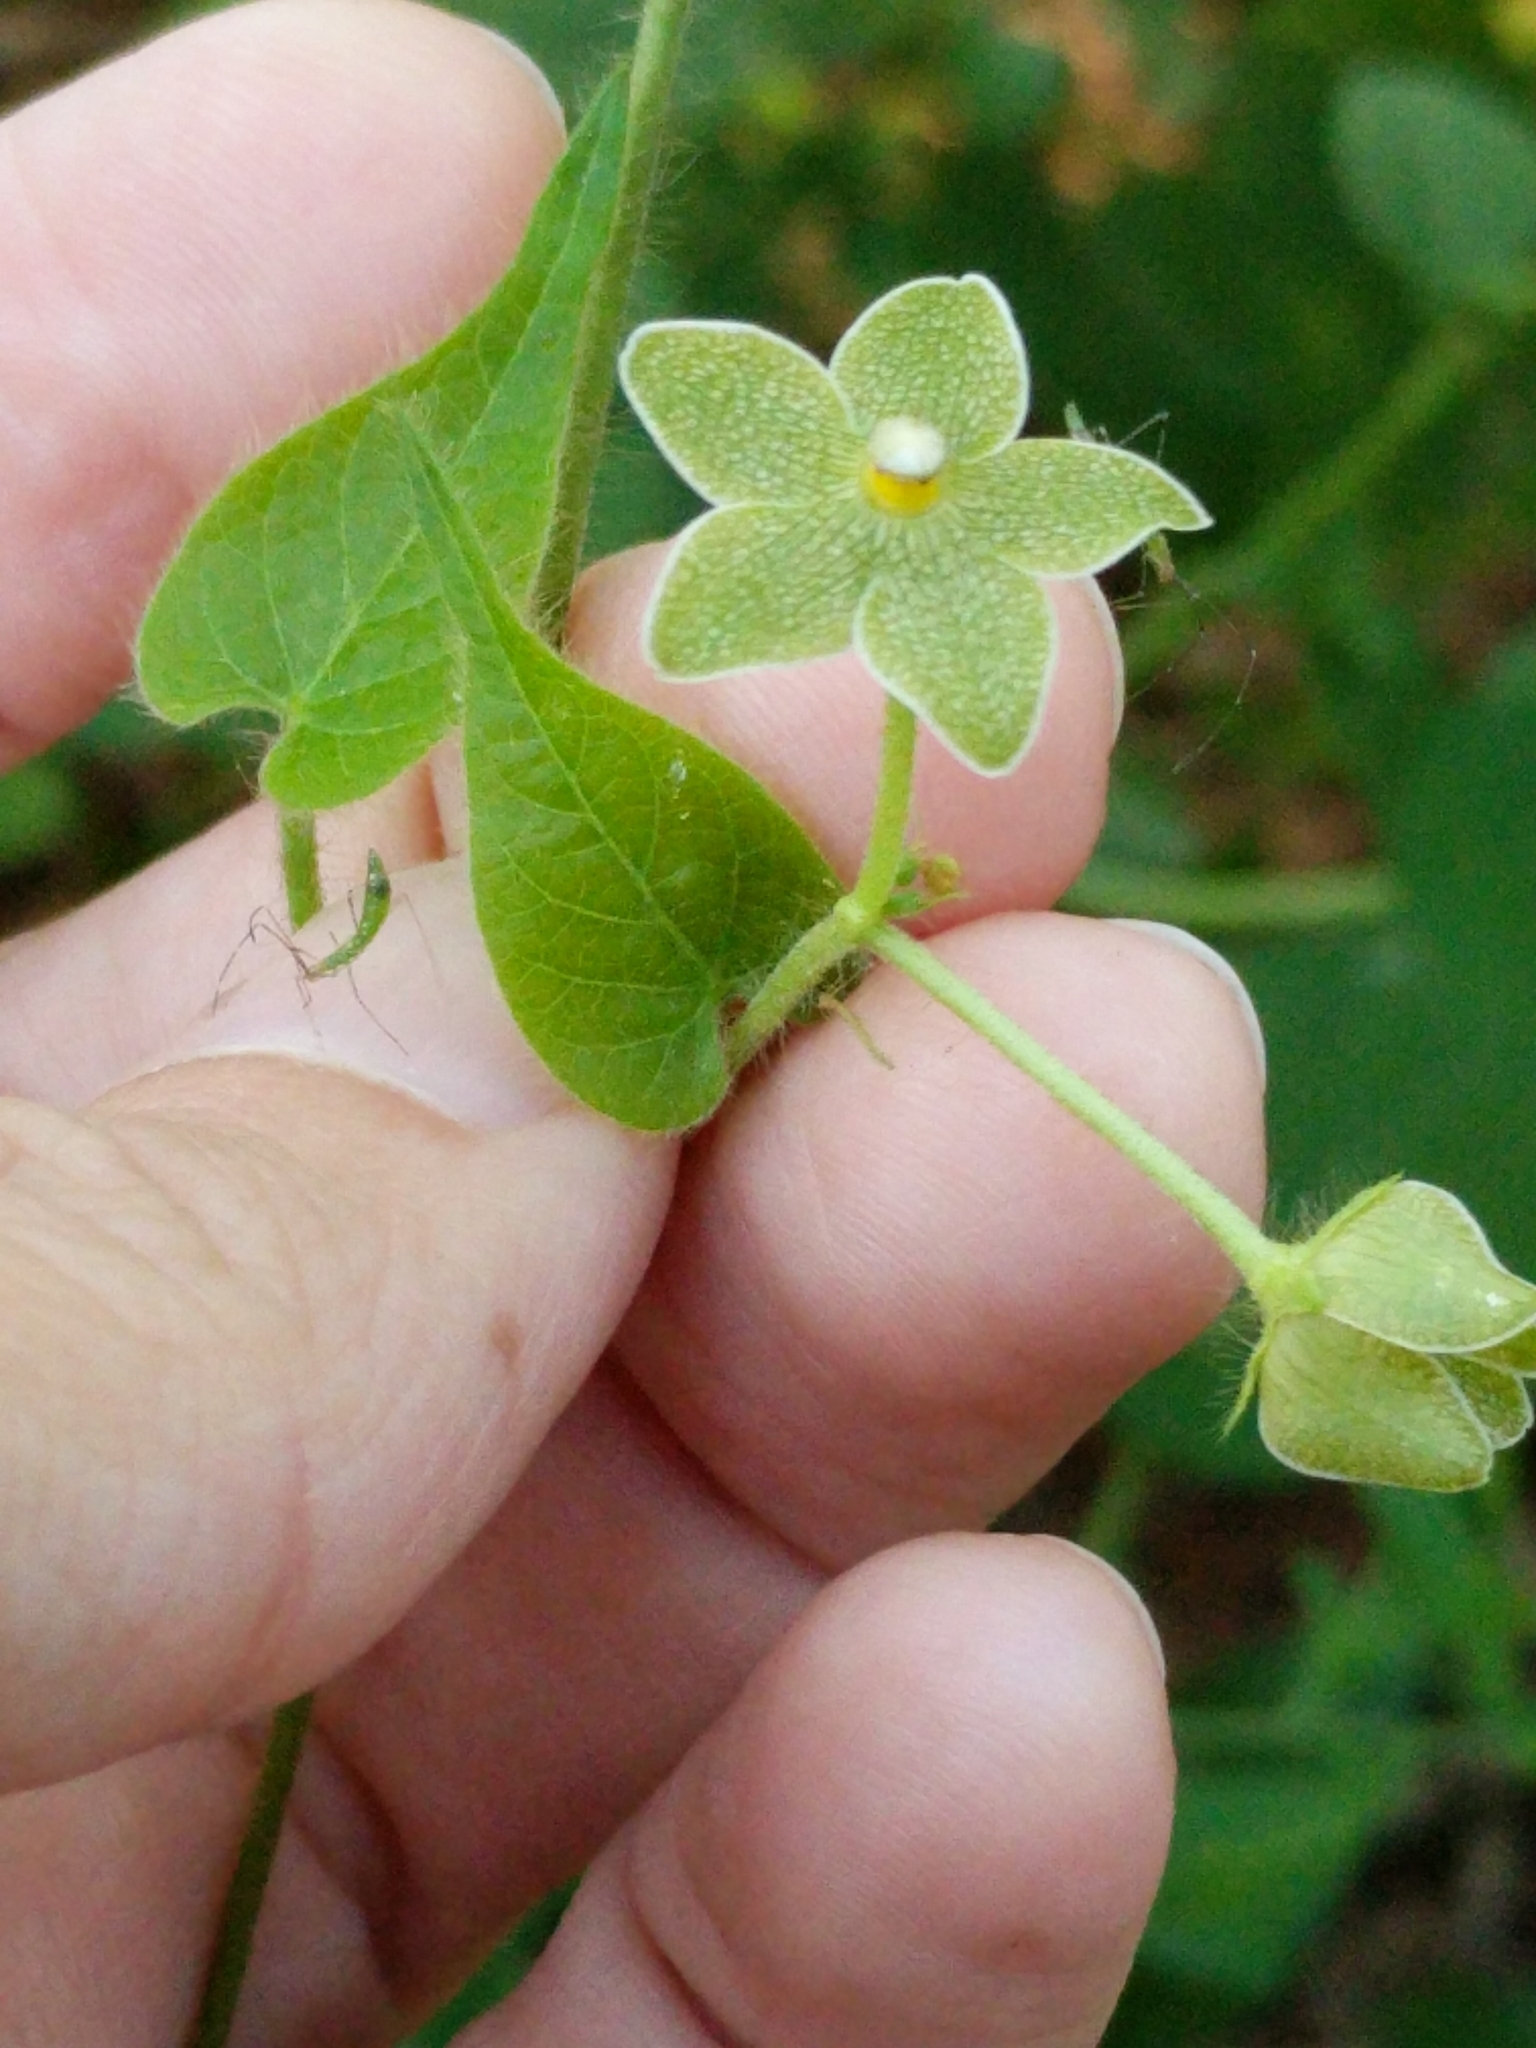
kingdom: Plantae
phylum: Tracheophyta
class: Magnoliopsida
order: Gentianales
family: Apocynaceae
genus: Dictyanthus
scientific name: Dictyanthus reticulatus
